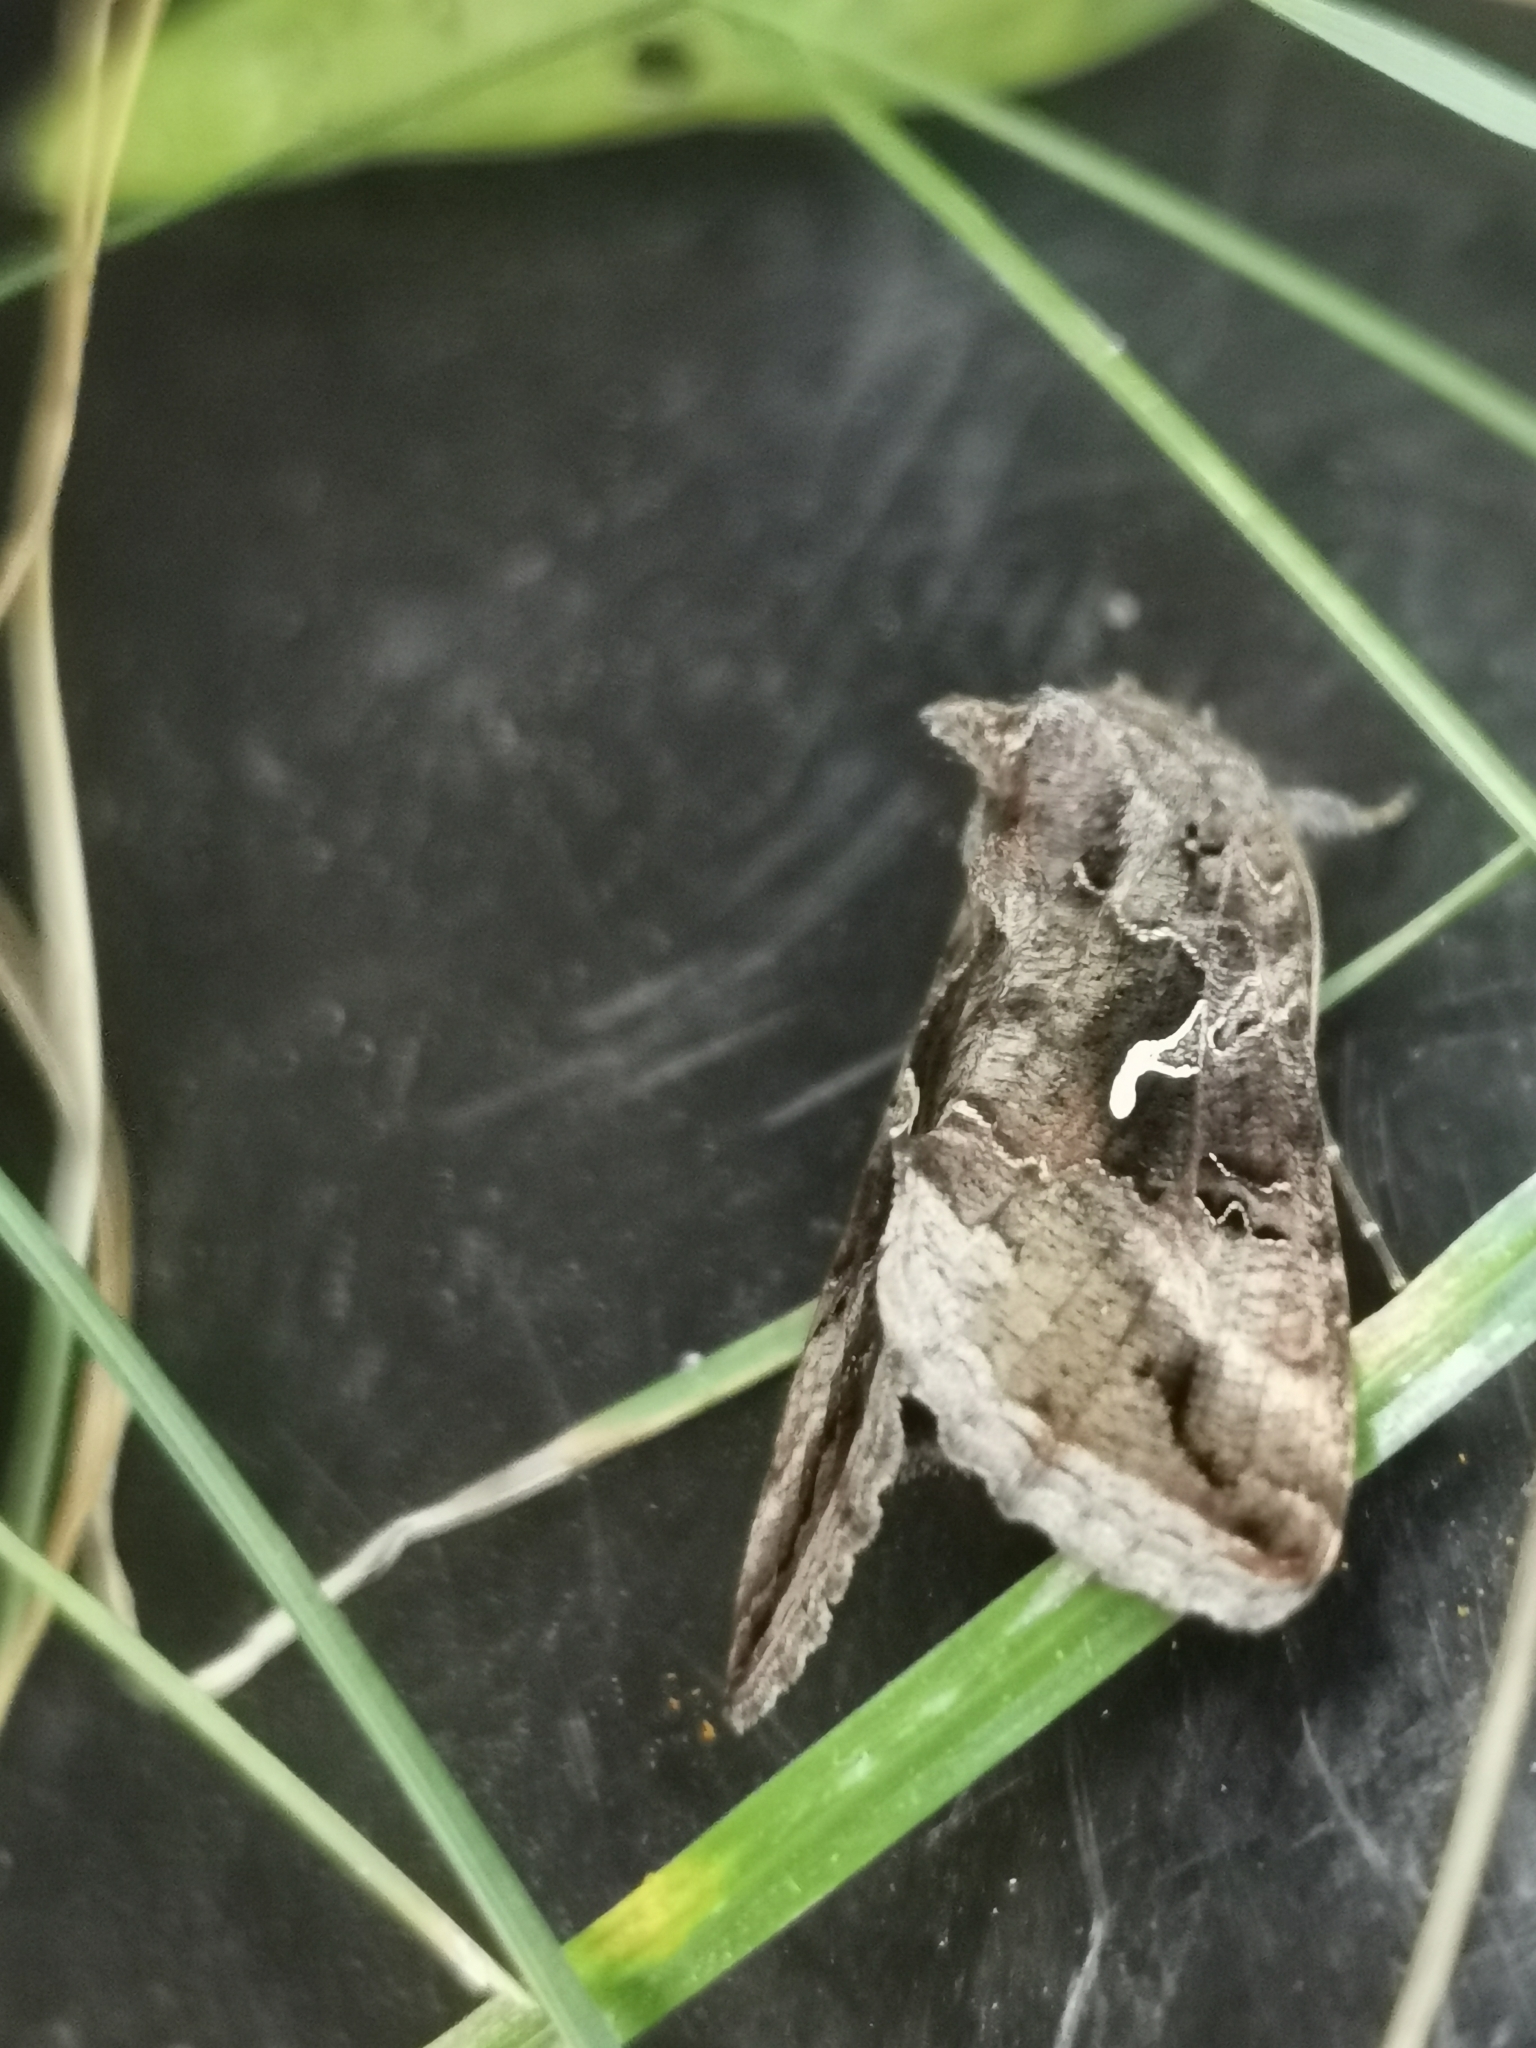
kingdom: Animalia
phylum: Arthropoda
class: Insecta
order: Lepidoptera
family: Noctuidae
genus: Autographa
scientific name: Autographa gamma
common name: Silver y
